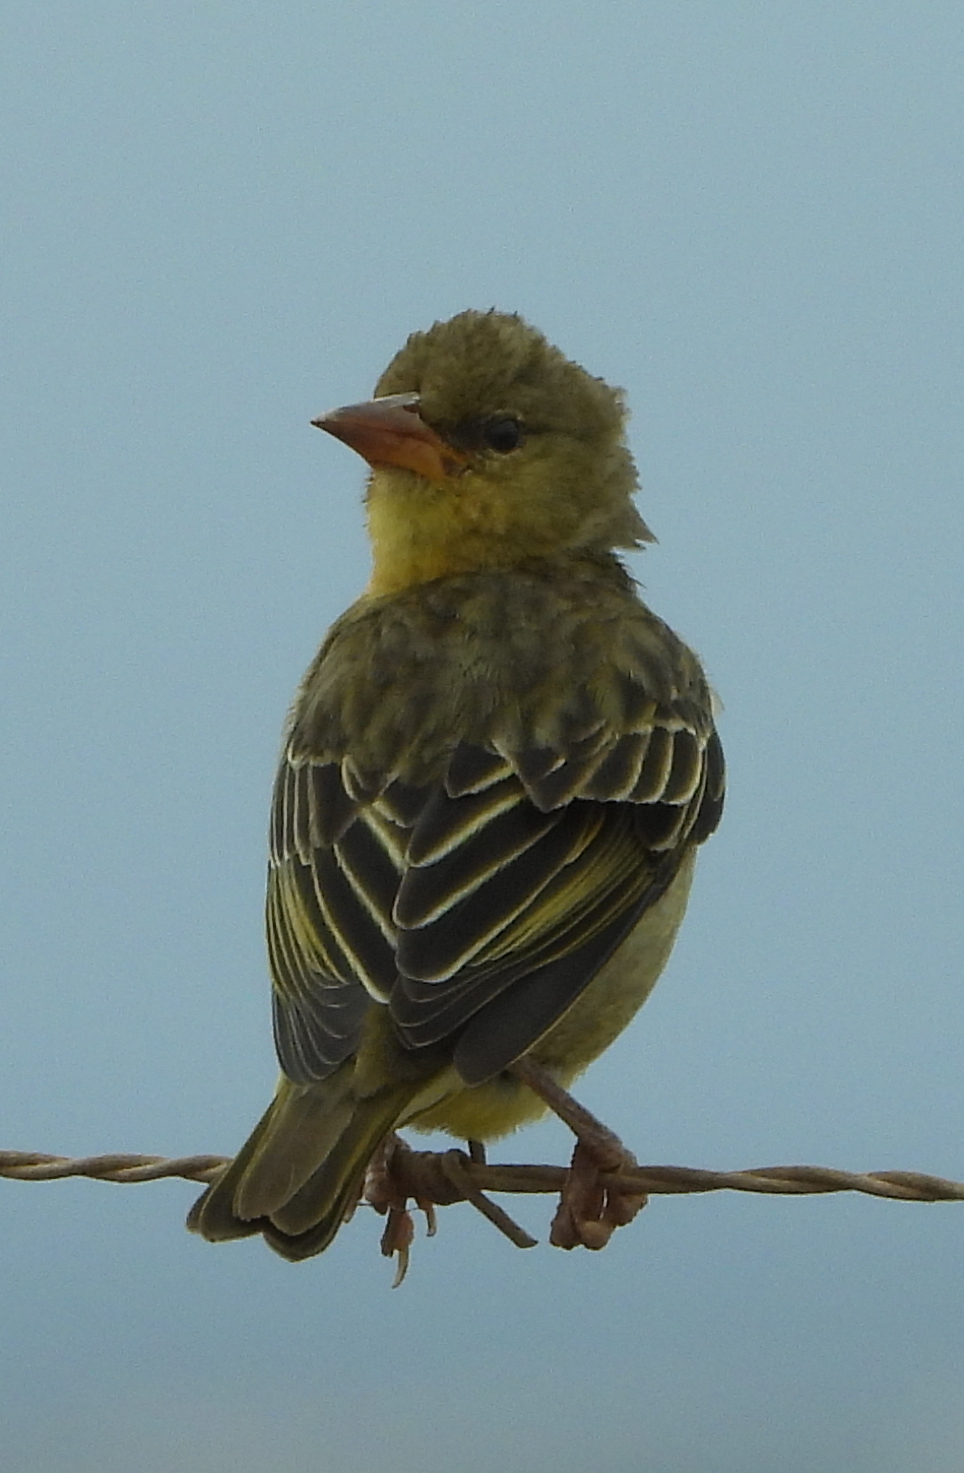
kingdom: Animalia
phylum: Chordata
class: Aves
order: Passeriformes
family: Ploceidae
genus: Ploceus
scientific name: Ploceus capensis
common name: Cape weaver
